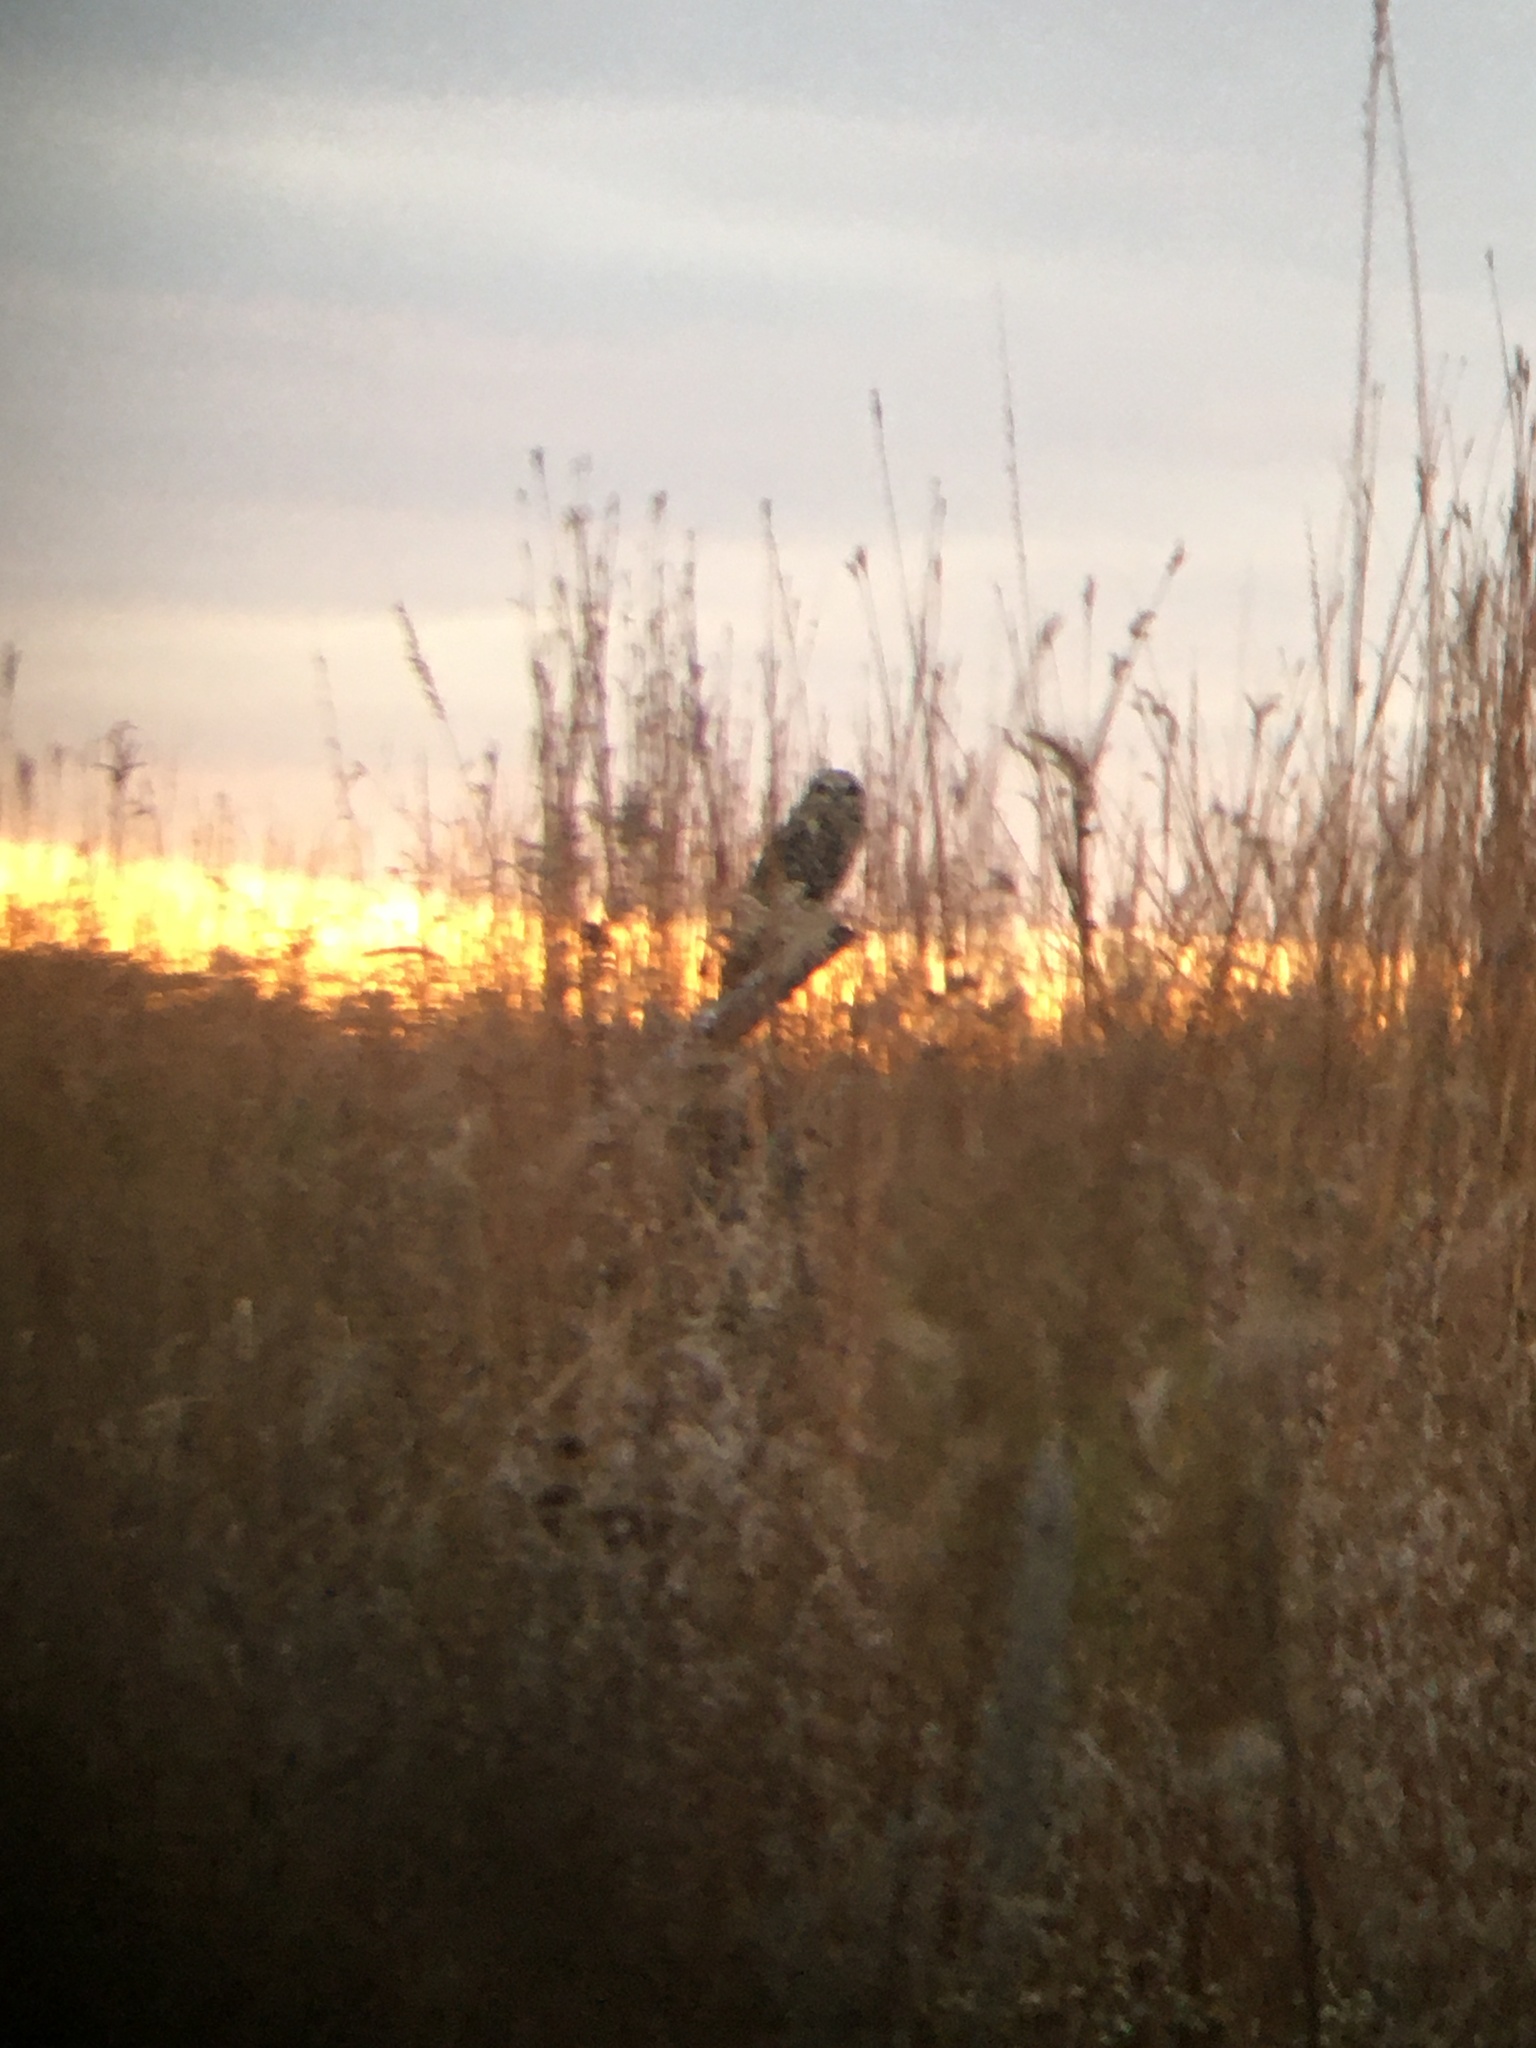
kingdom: Animalia
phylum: Chordata
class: Aves
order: Strigiformes
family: Strigidae
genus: Asio
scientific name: Asio flammeus
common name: Short-eared owl
